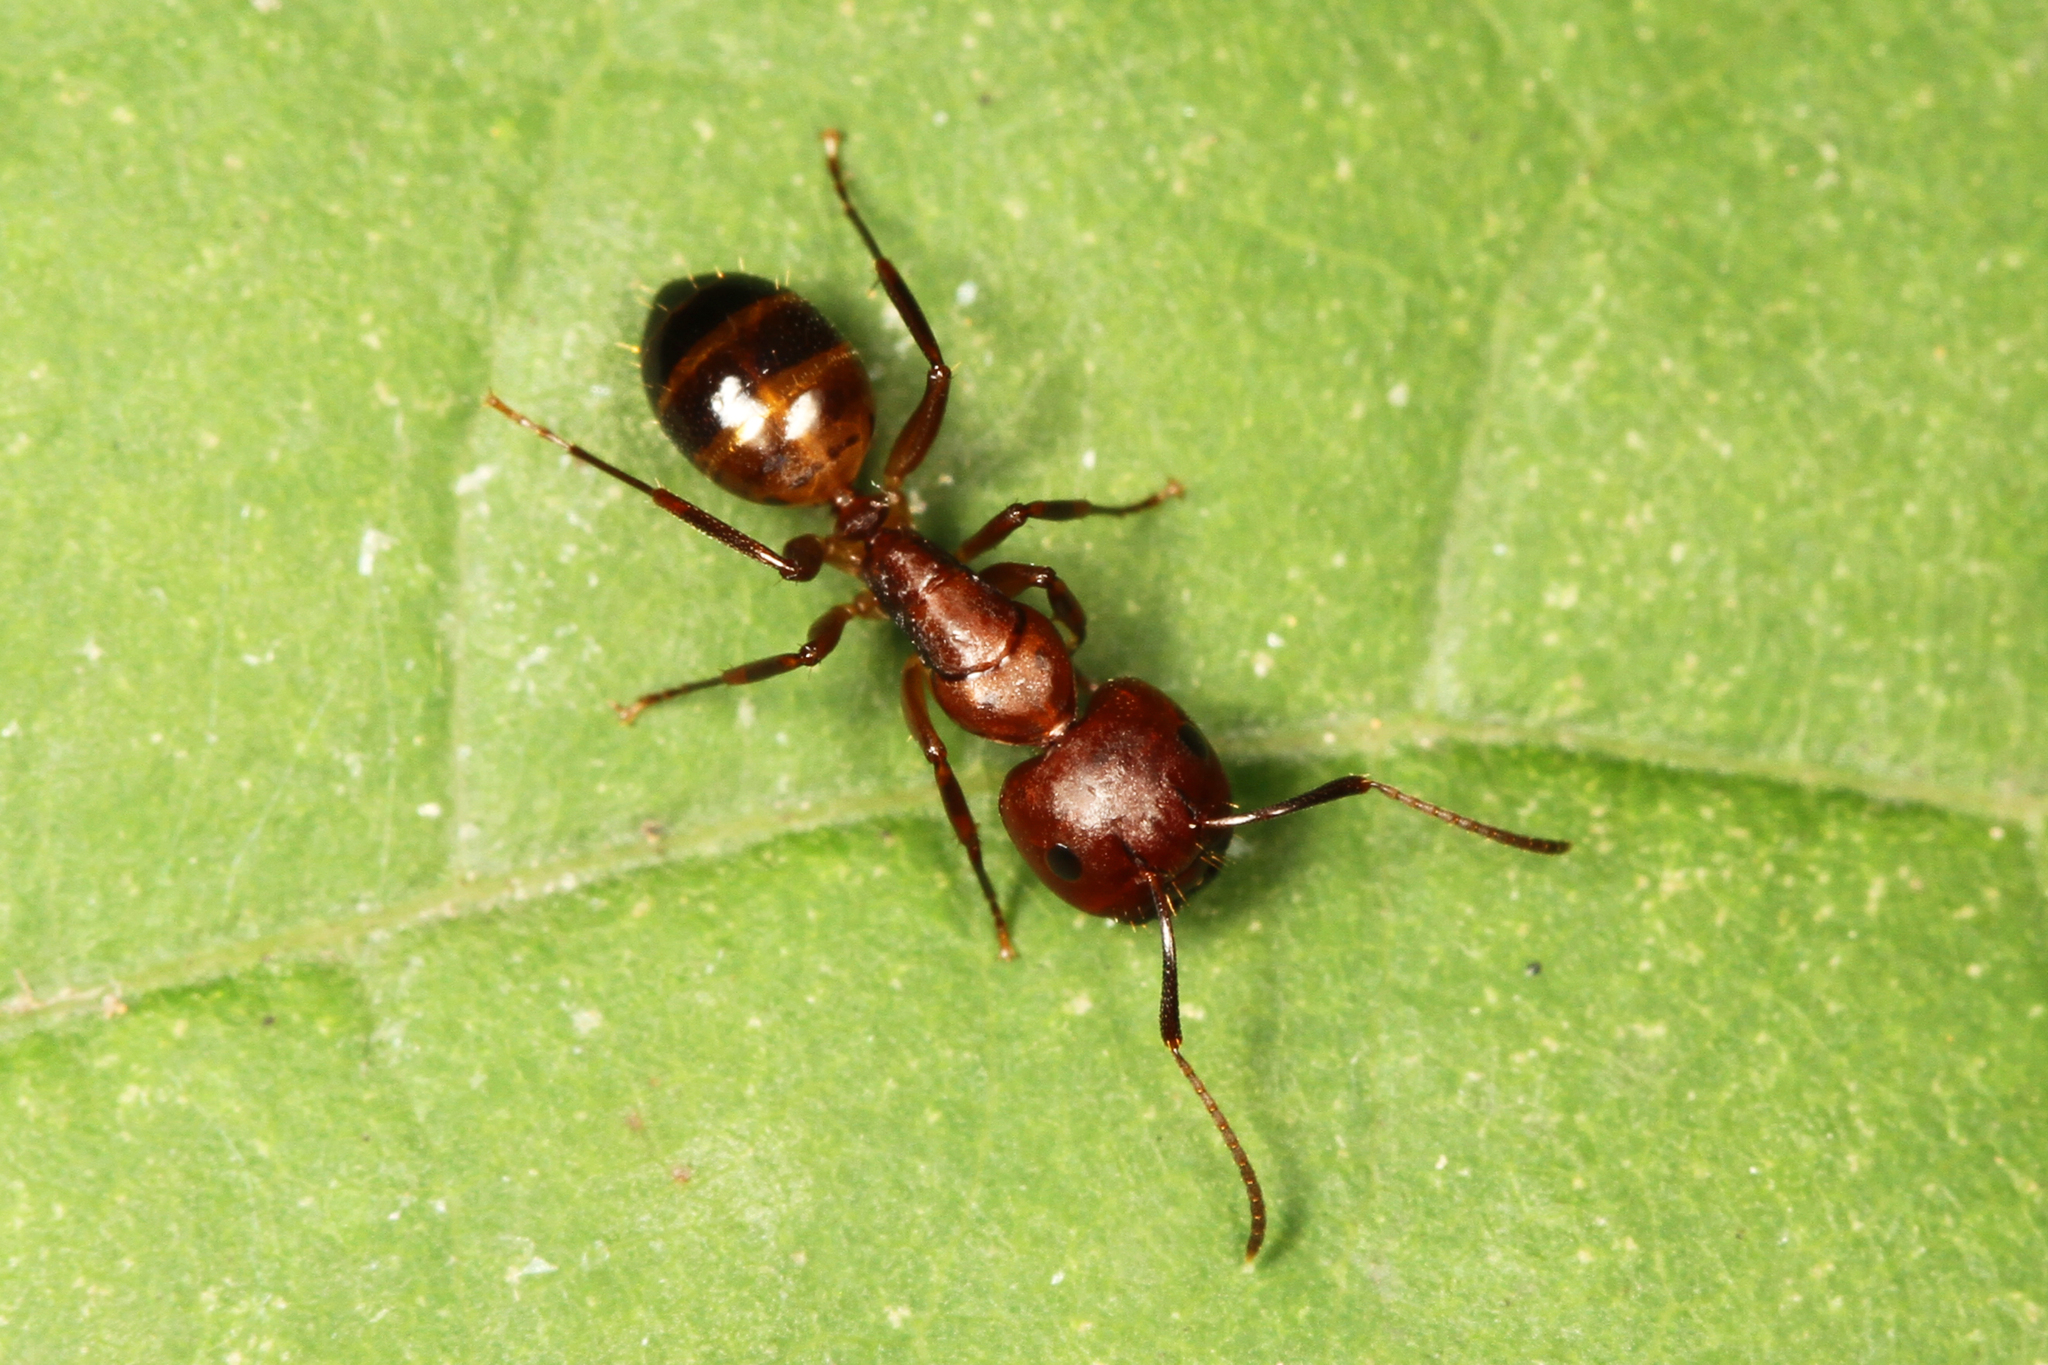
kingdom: Animalia
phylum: Arthropoda
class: Insecta
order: Hymenoptera
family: Formicidae
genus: Camponotus
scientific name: Camponotus subbarbatus
